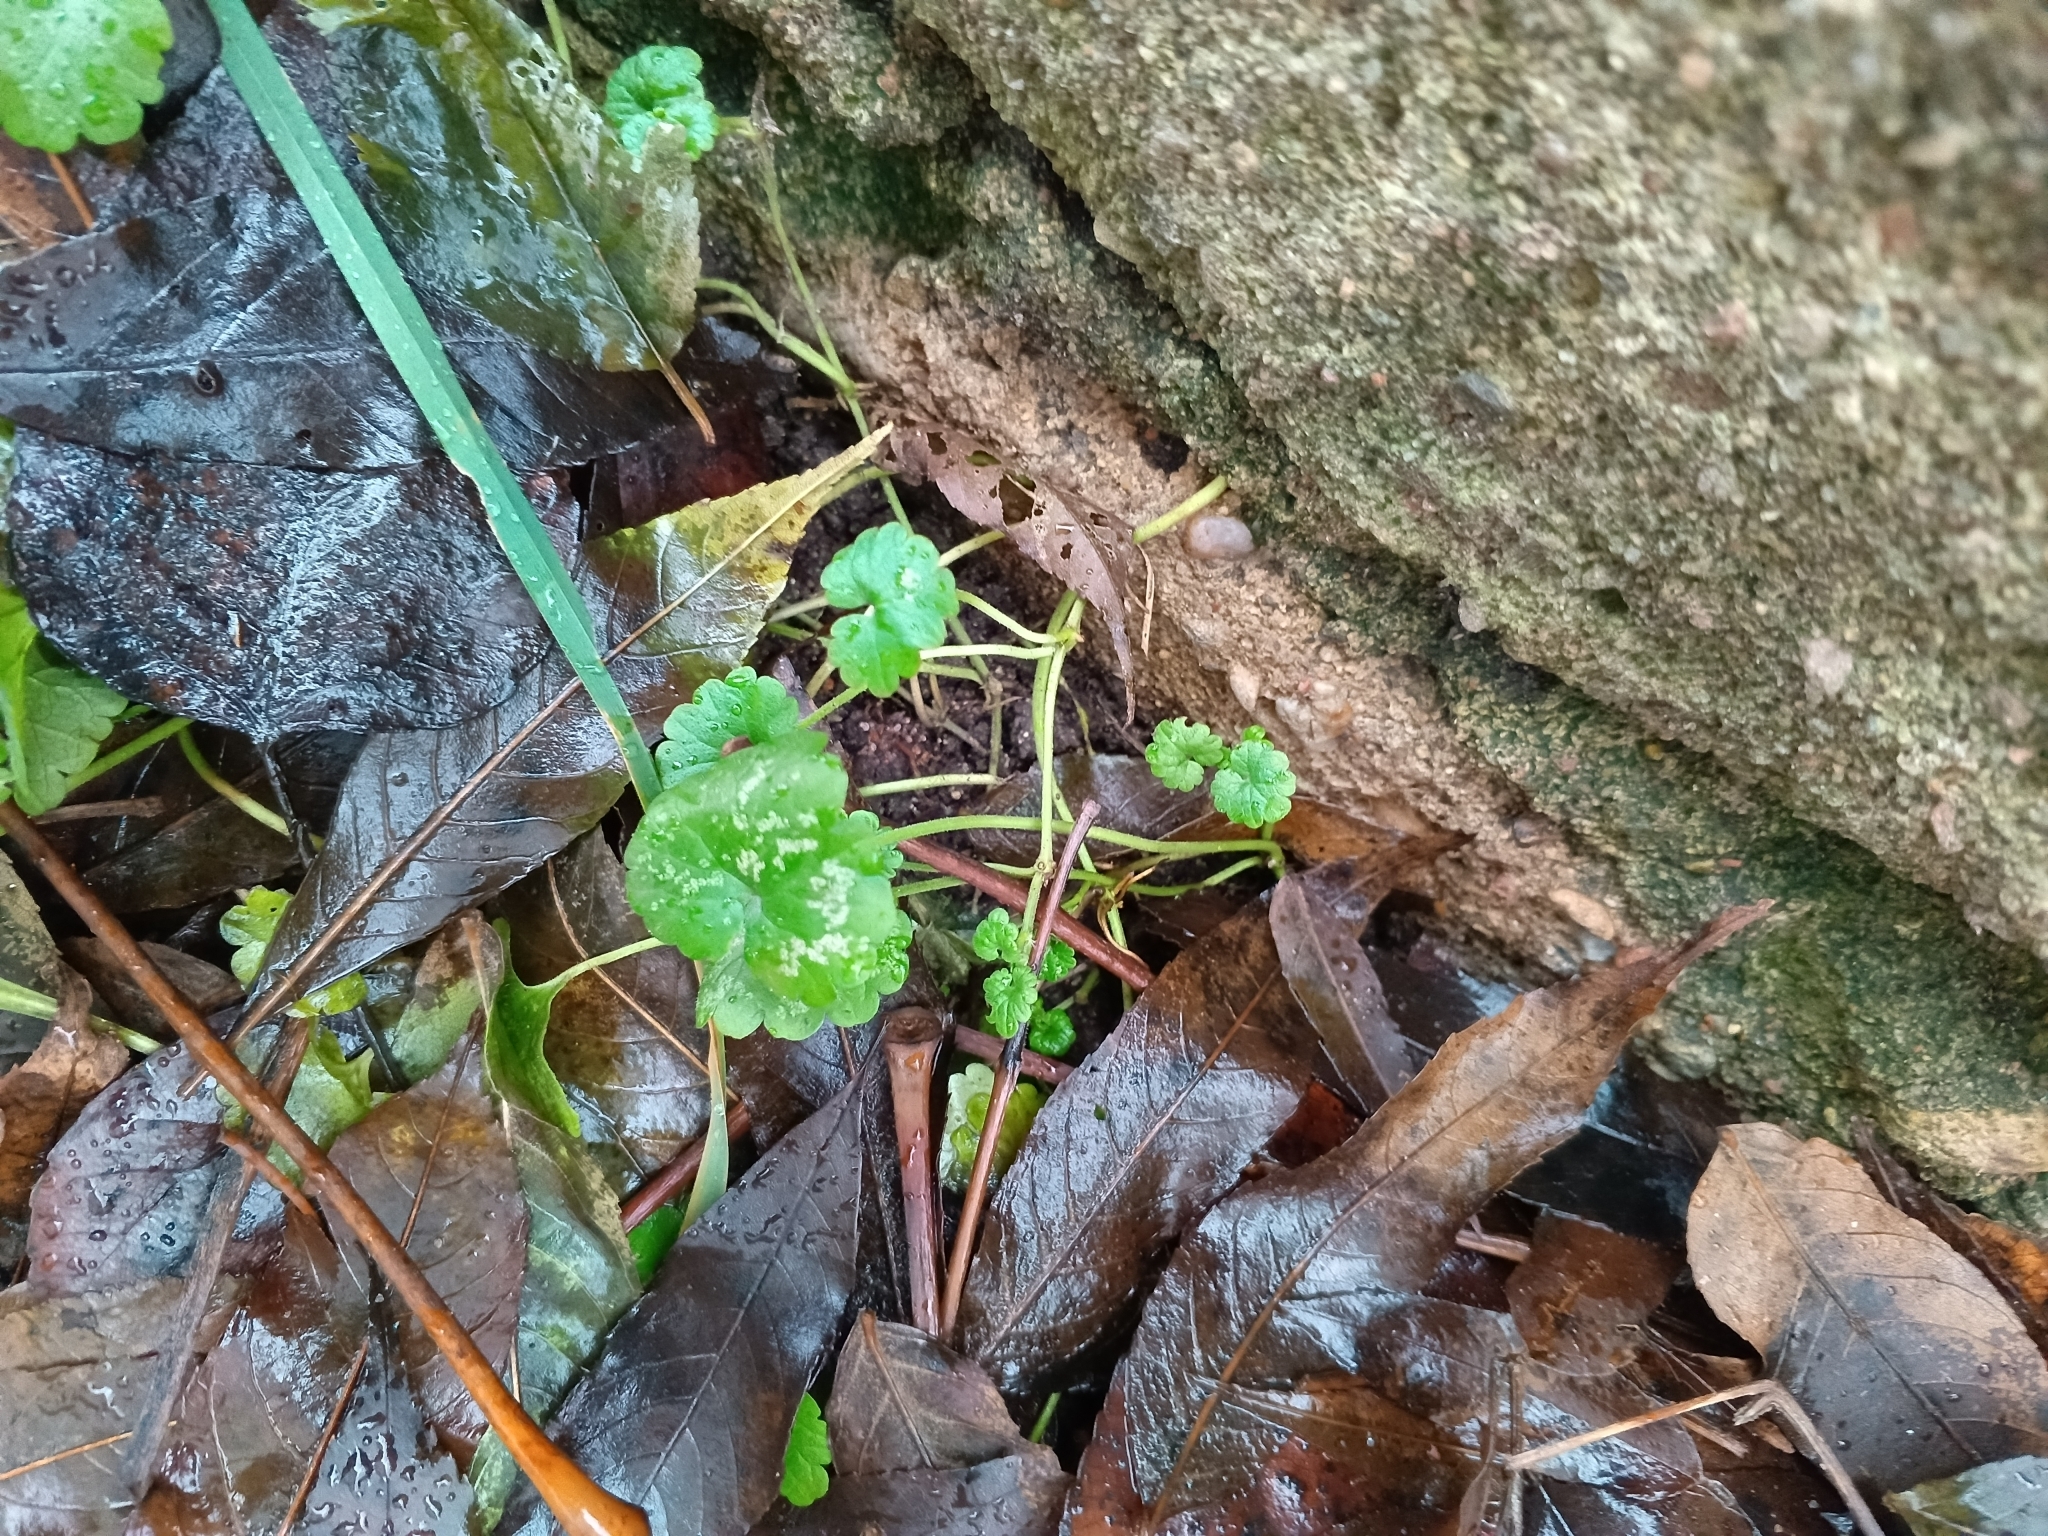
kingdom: Plantae
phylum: Tracheophyta
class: Magnoliopsida
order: Lamiales
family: Lamiaceae
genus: Glechoma
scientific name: Glechoma hederacea
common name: Ground ivy
